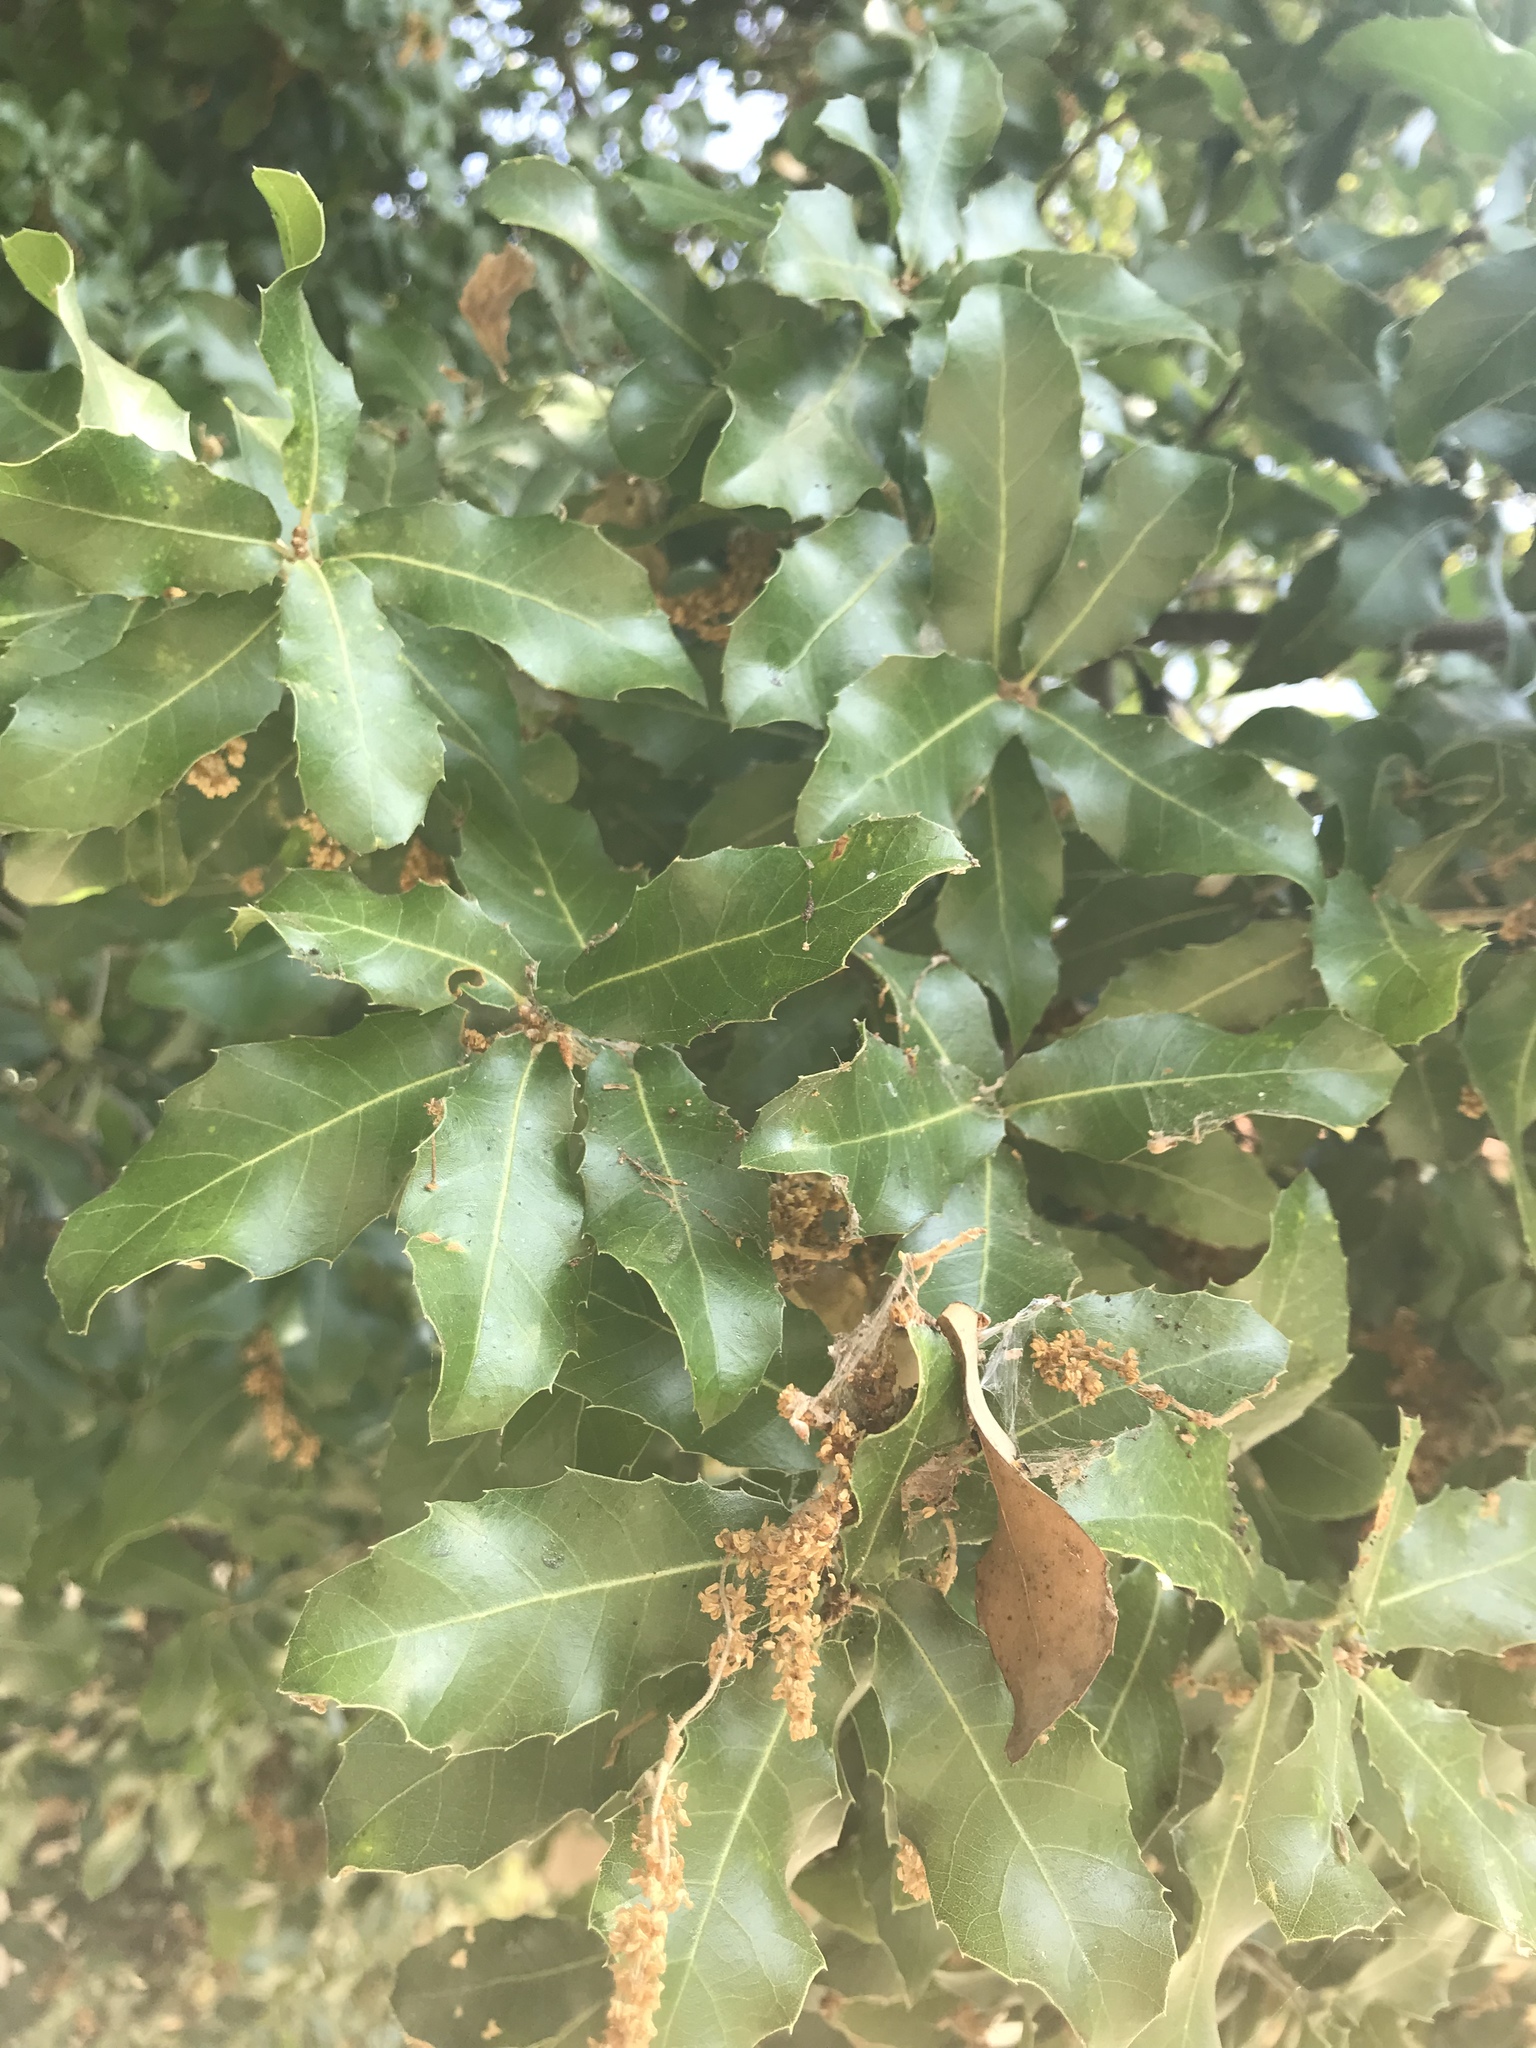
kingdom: Plantae
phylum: Tracheophyta
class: Magnoliopsida
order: Fagales
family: Fagaceae
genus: Quercus
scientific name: Quercus coccifera
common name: Kermes oak
